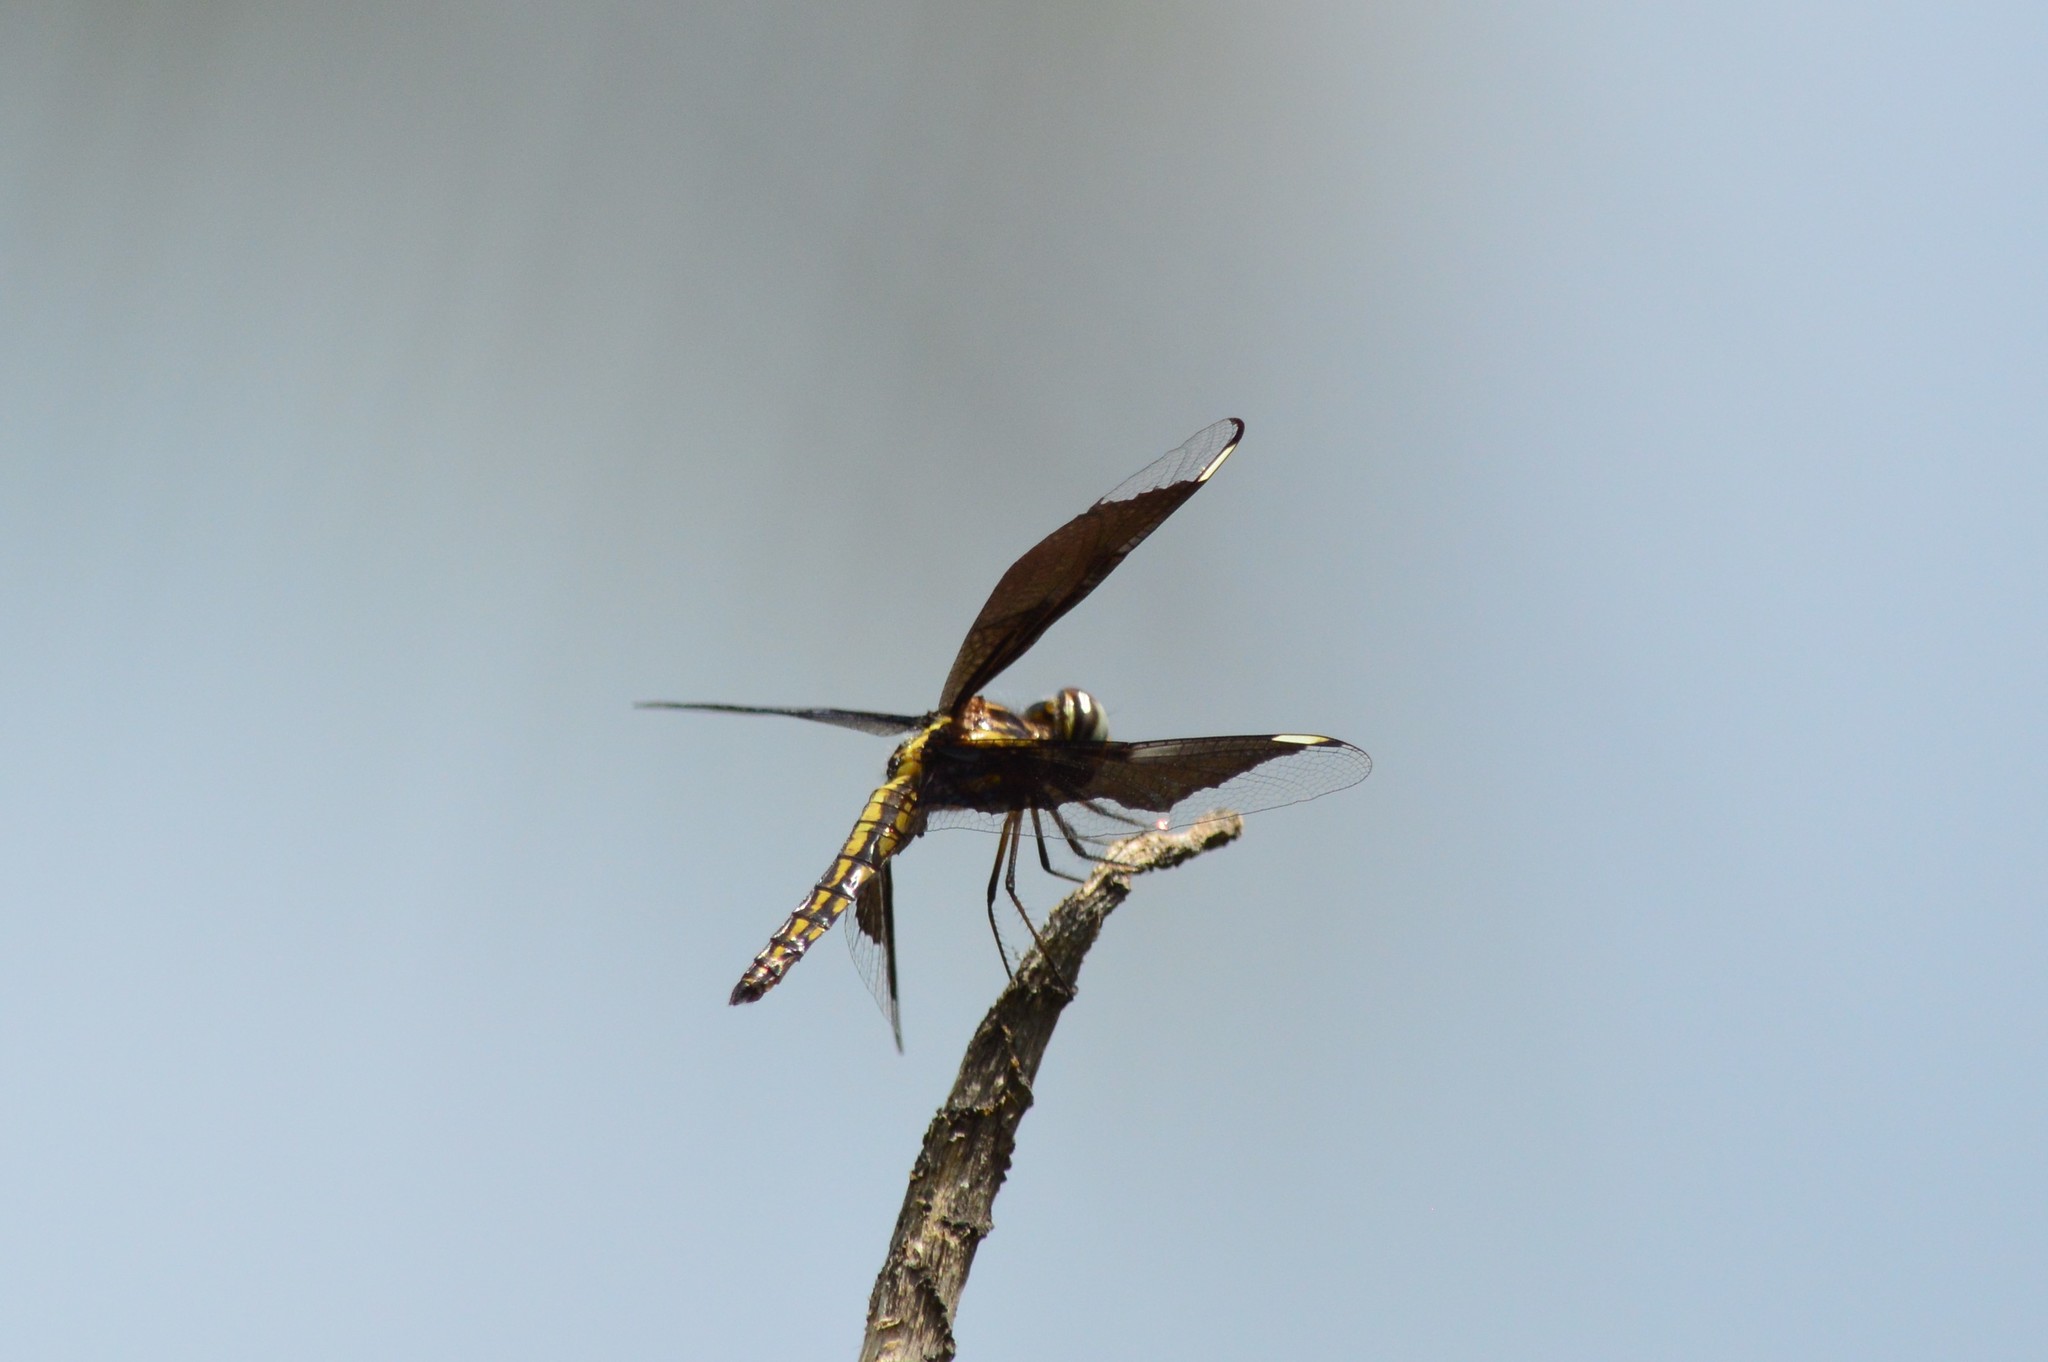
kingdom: Animalia
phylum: Arthropoda
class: Insecta
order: Odonata
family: Libellulidae
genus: Palpopleura
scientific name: Palpopleura lucia
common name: Lucia widow
